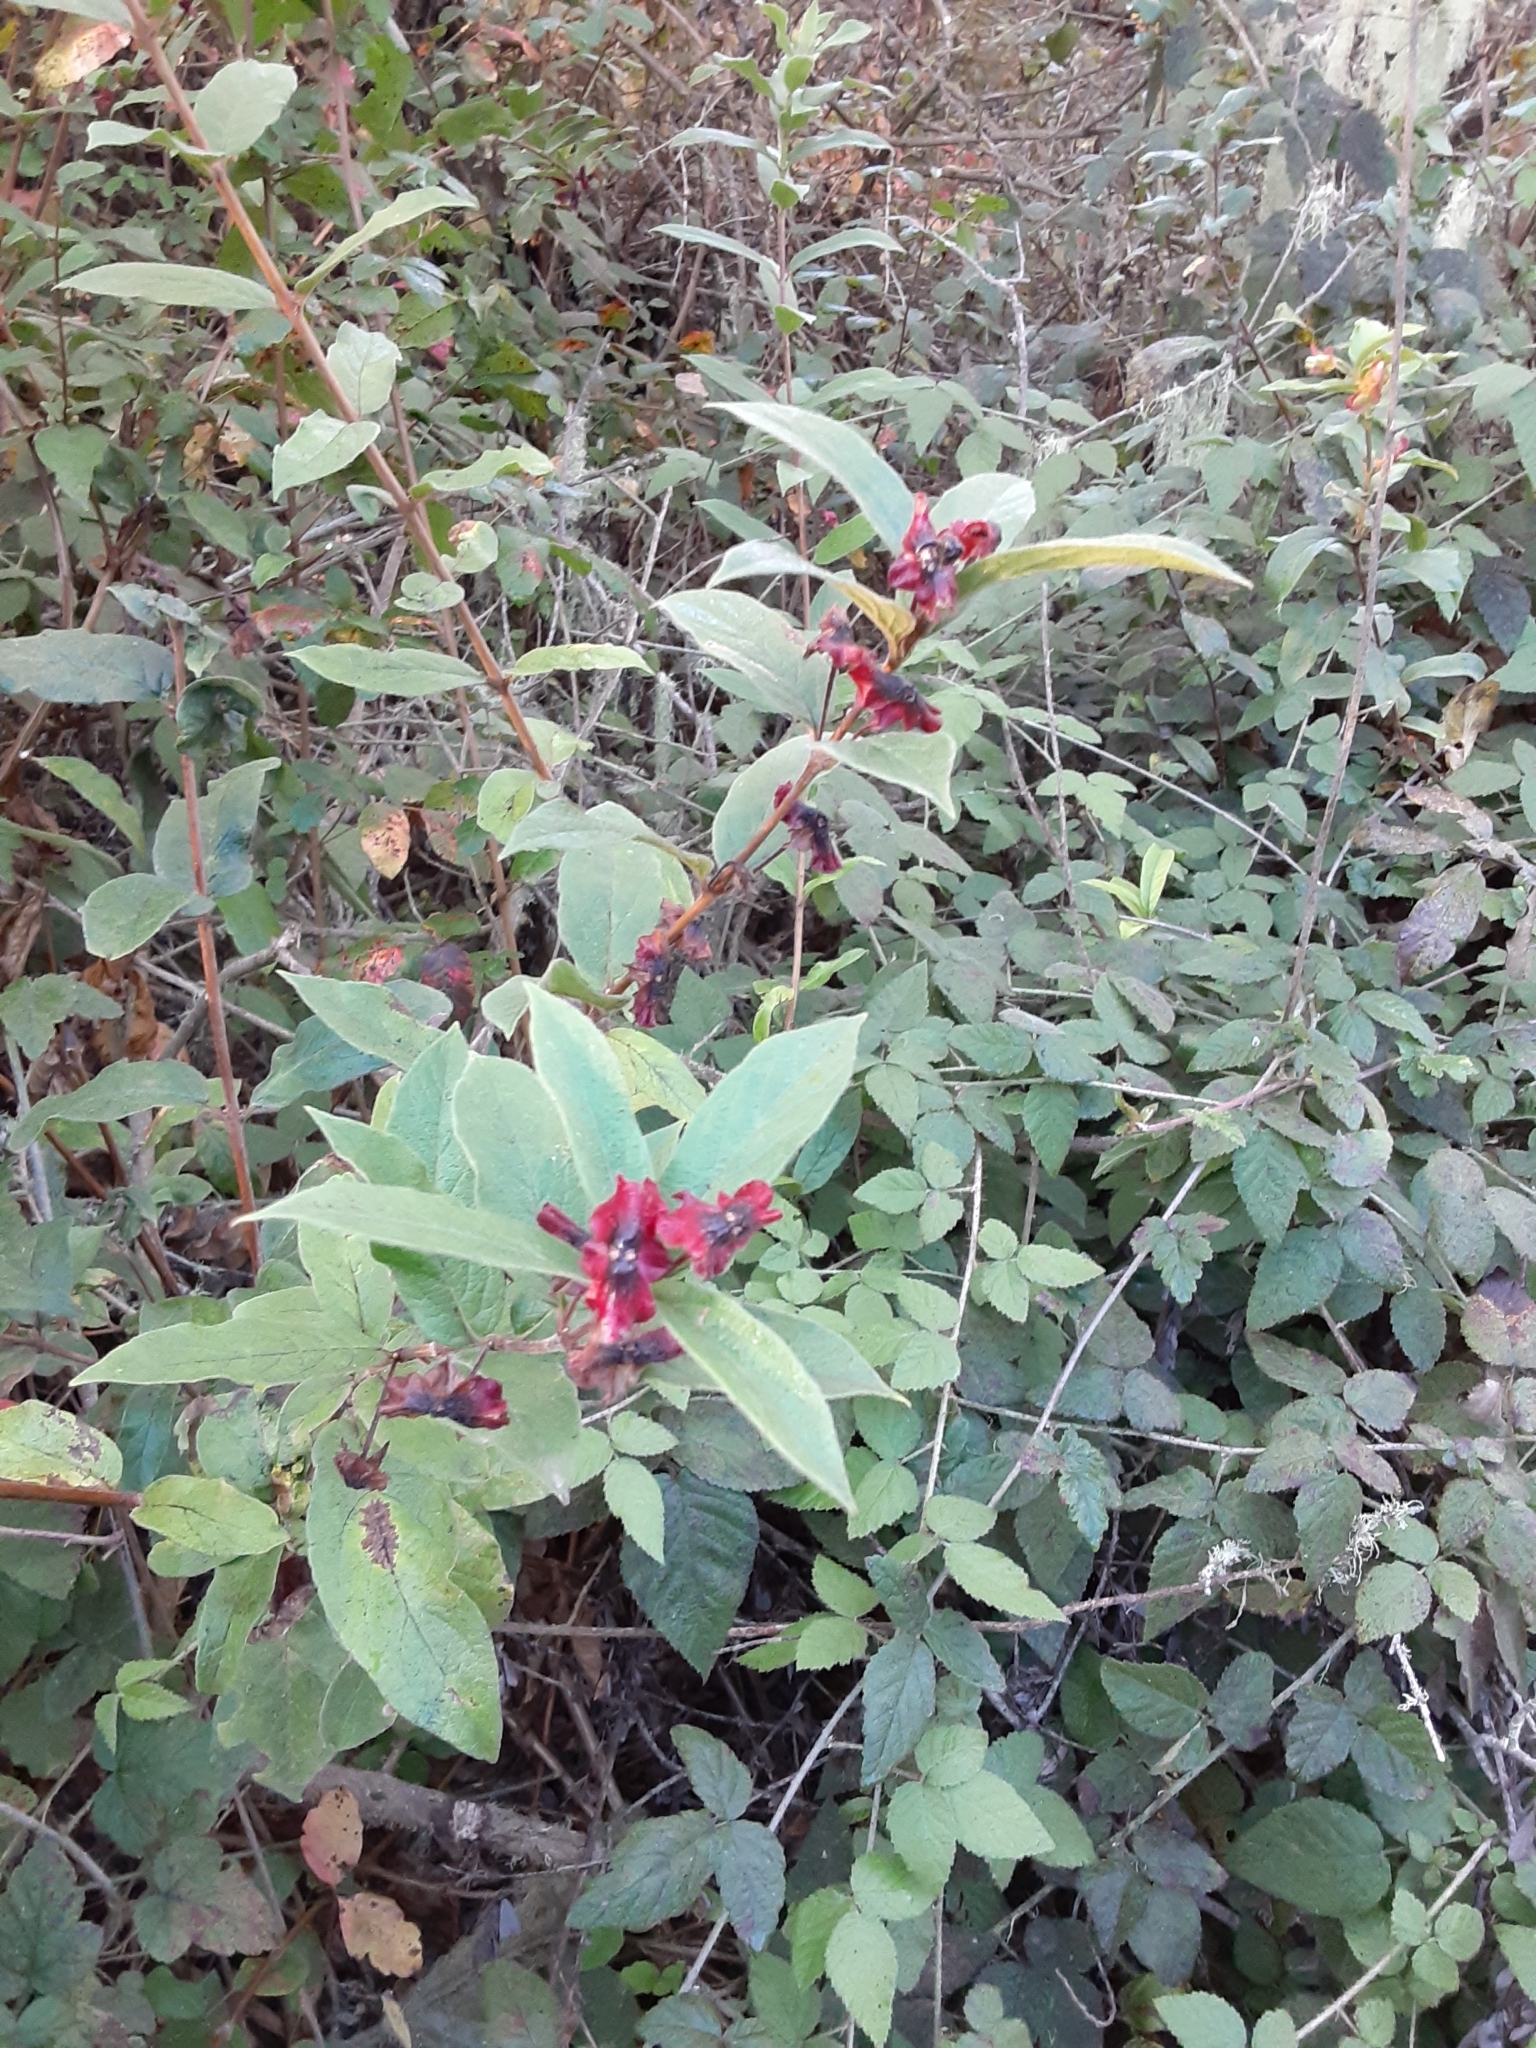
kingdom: Plantae
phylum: Tracheophyta
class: Magnoliopsida
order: Dipsacales
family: Caprifoliaceae
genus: Lonicera
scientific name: Lonicera involucrata
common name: Californian honeysuckle
